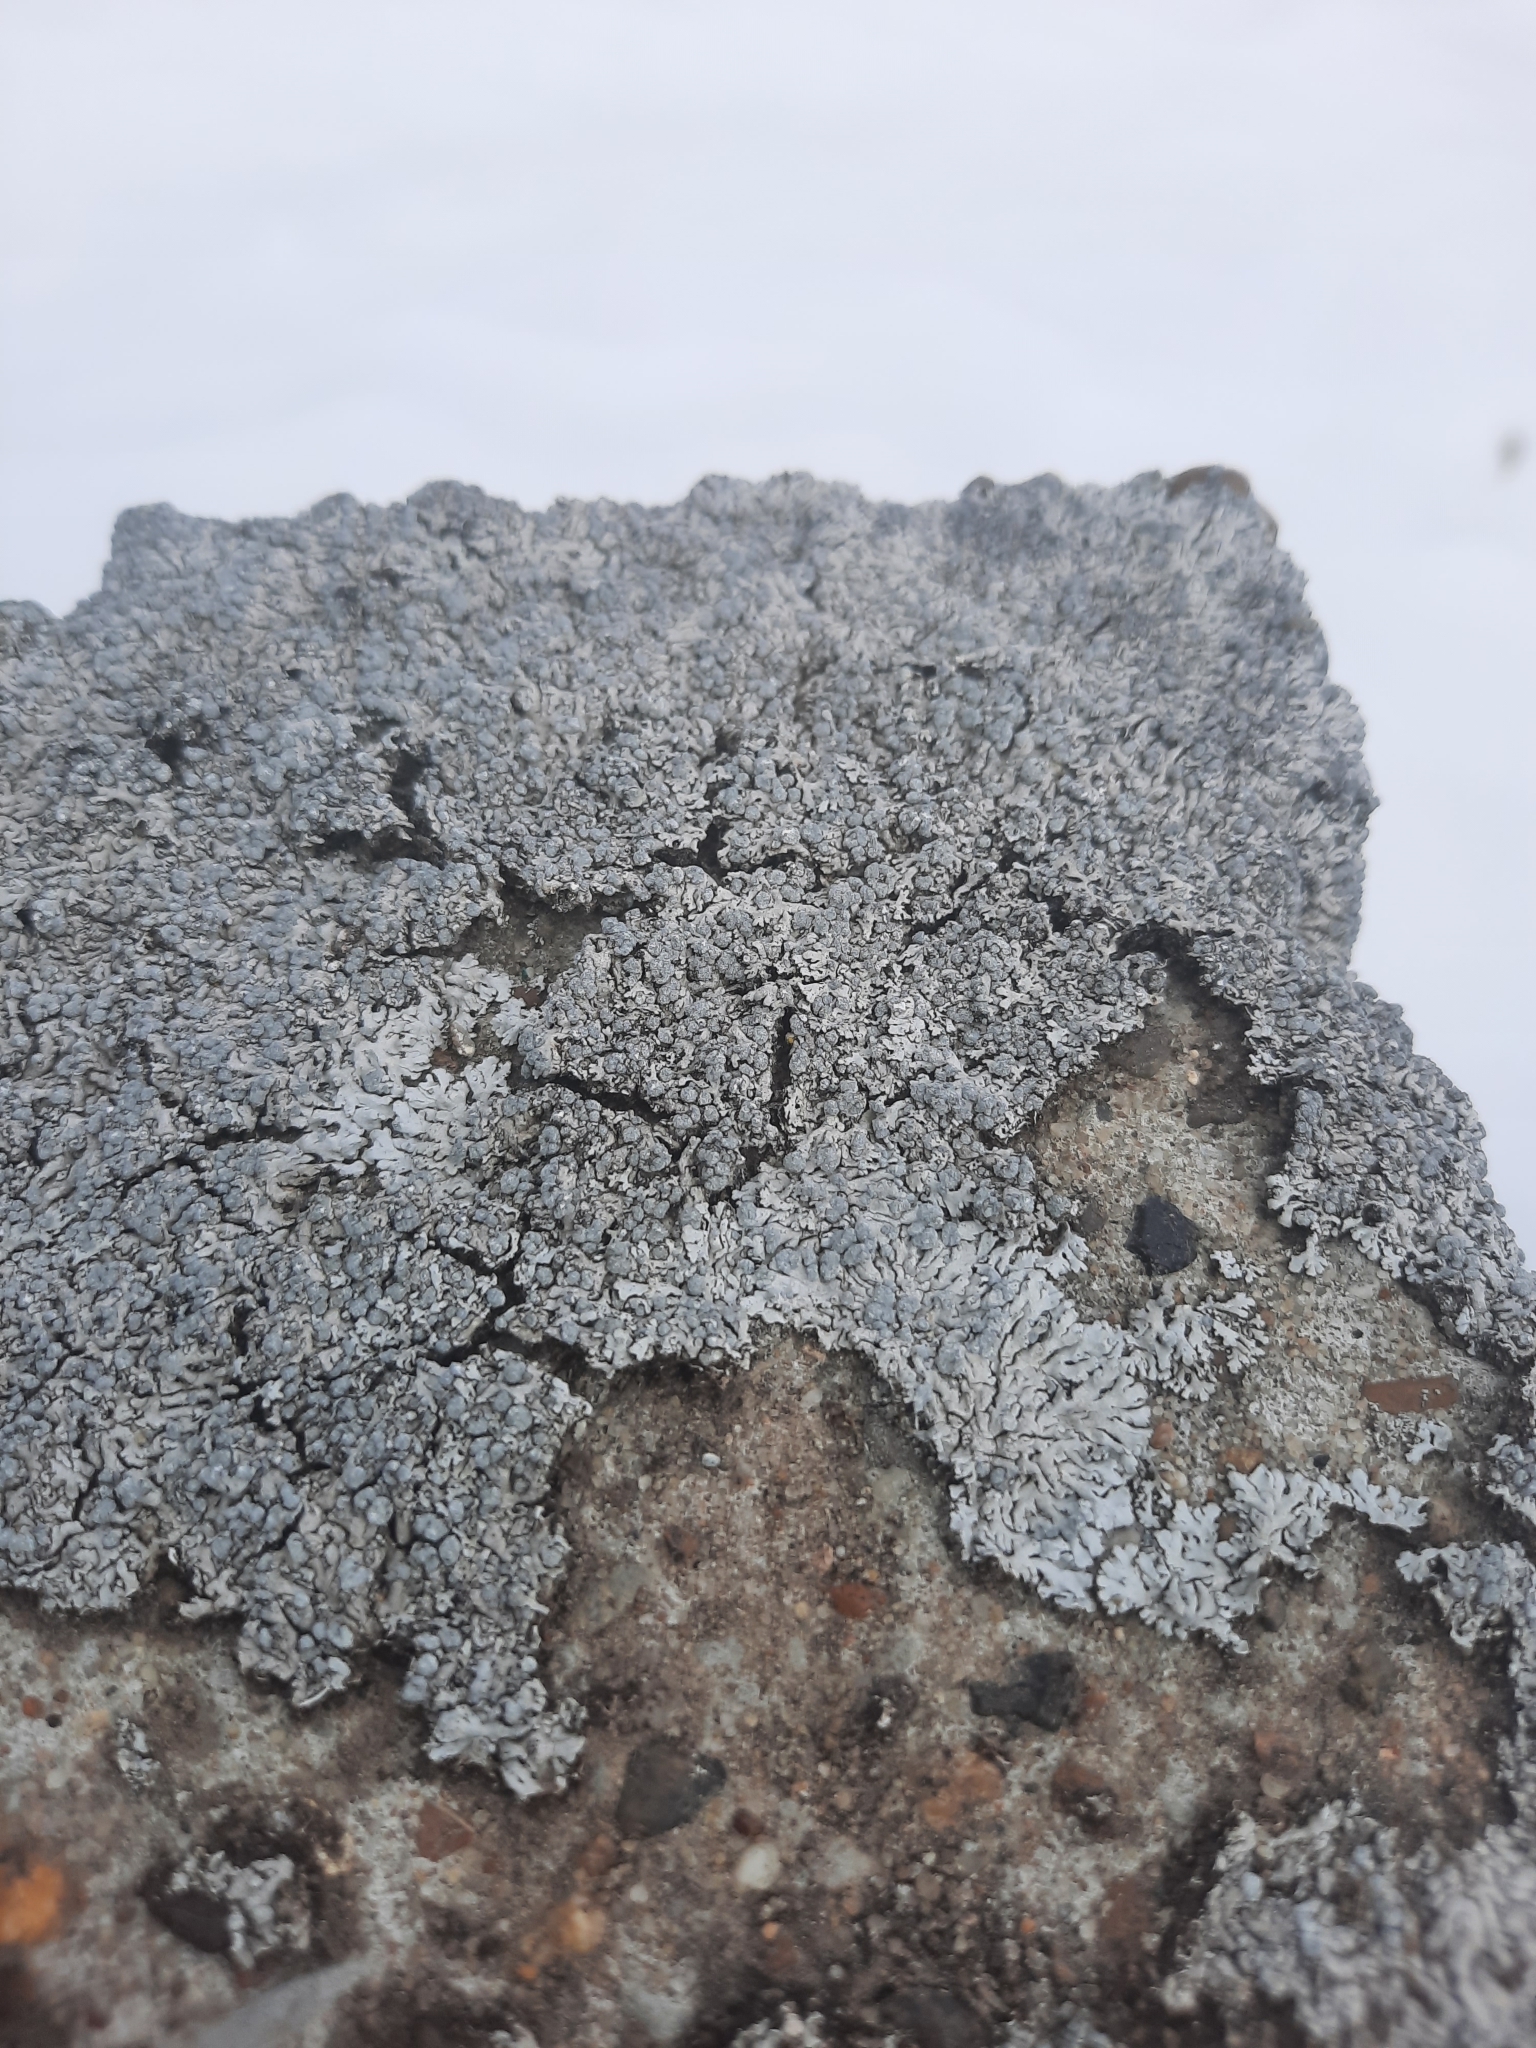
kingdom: Fungi
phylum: Ascomycota
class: Lecanoromycetes
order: Caliciales
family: Physciaceae
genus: Physcia
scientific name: Physcia caesia
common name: Blue-gray rosette lichen
